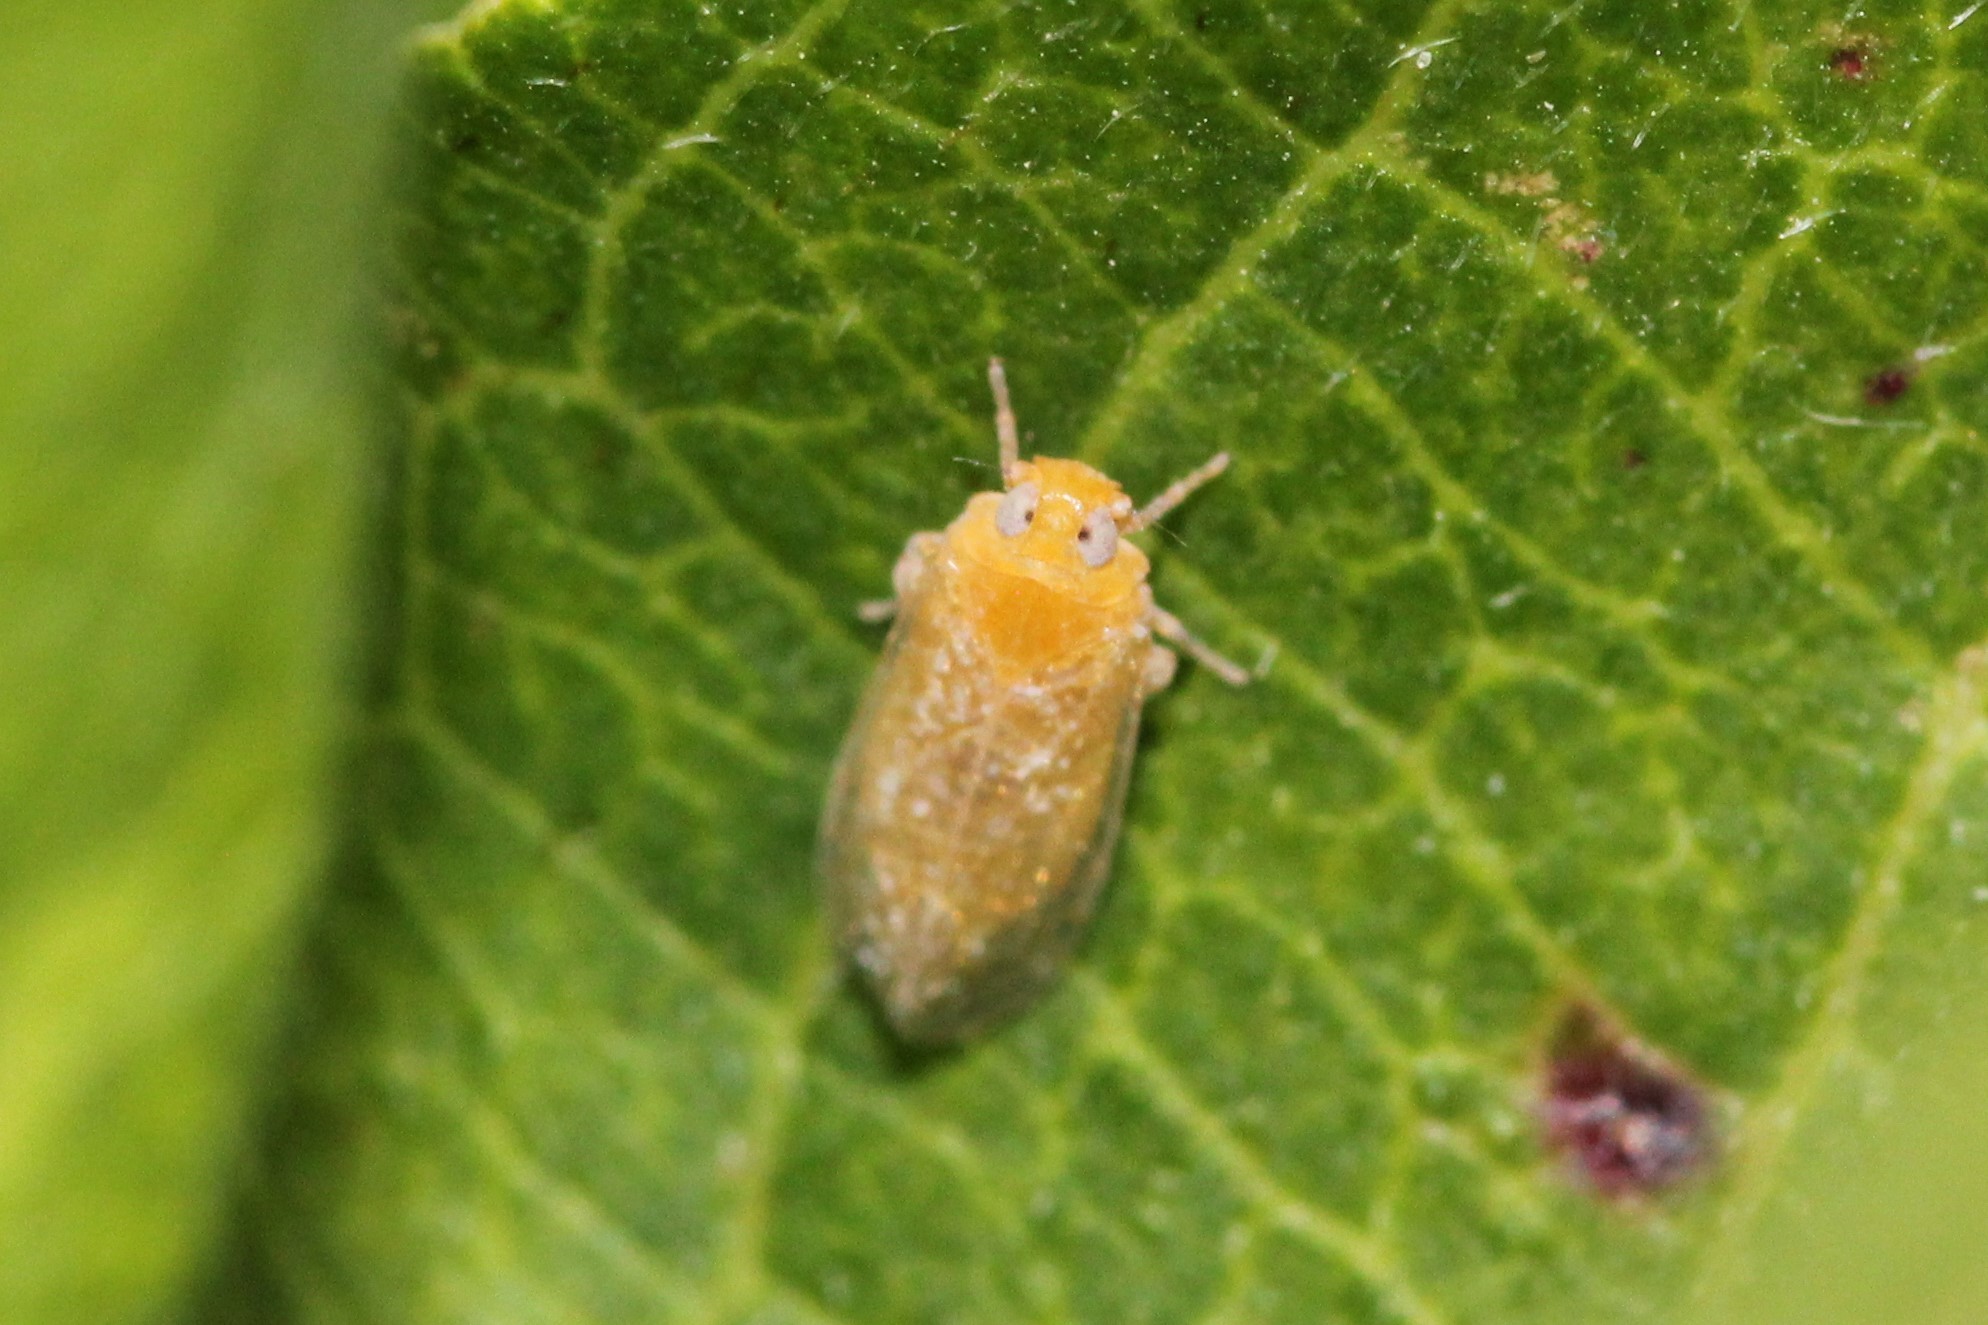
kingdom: Animalia
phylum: Arthropoda
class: Insecta
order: Hemiptera
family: Cixiidae
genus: Haplaxius
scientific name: Haplaxius fulvus
